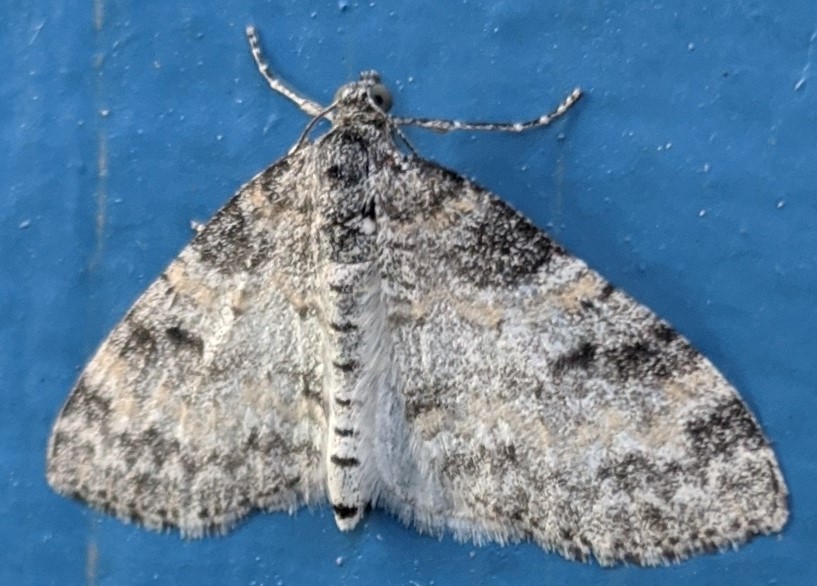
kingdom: Animalia
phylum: Arthropoda
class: Insecta
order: Lepidoptera
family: Geometridae
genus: Lobophora
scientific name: Lobophora nivigerata
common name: Powdered bigwing
